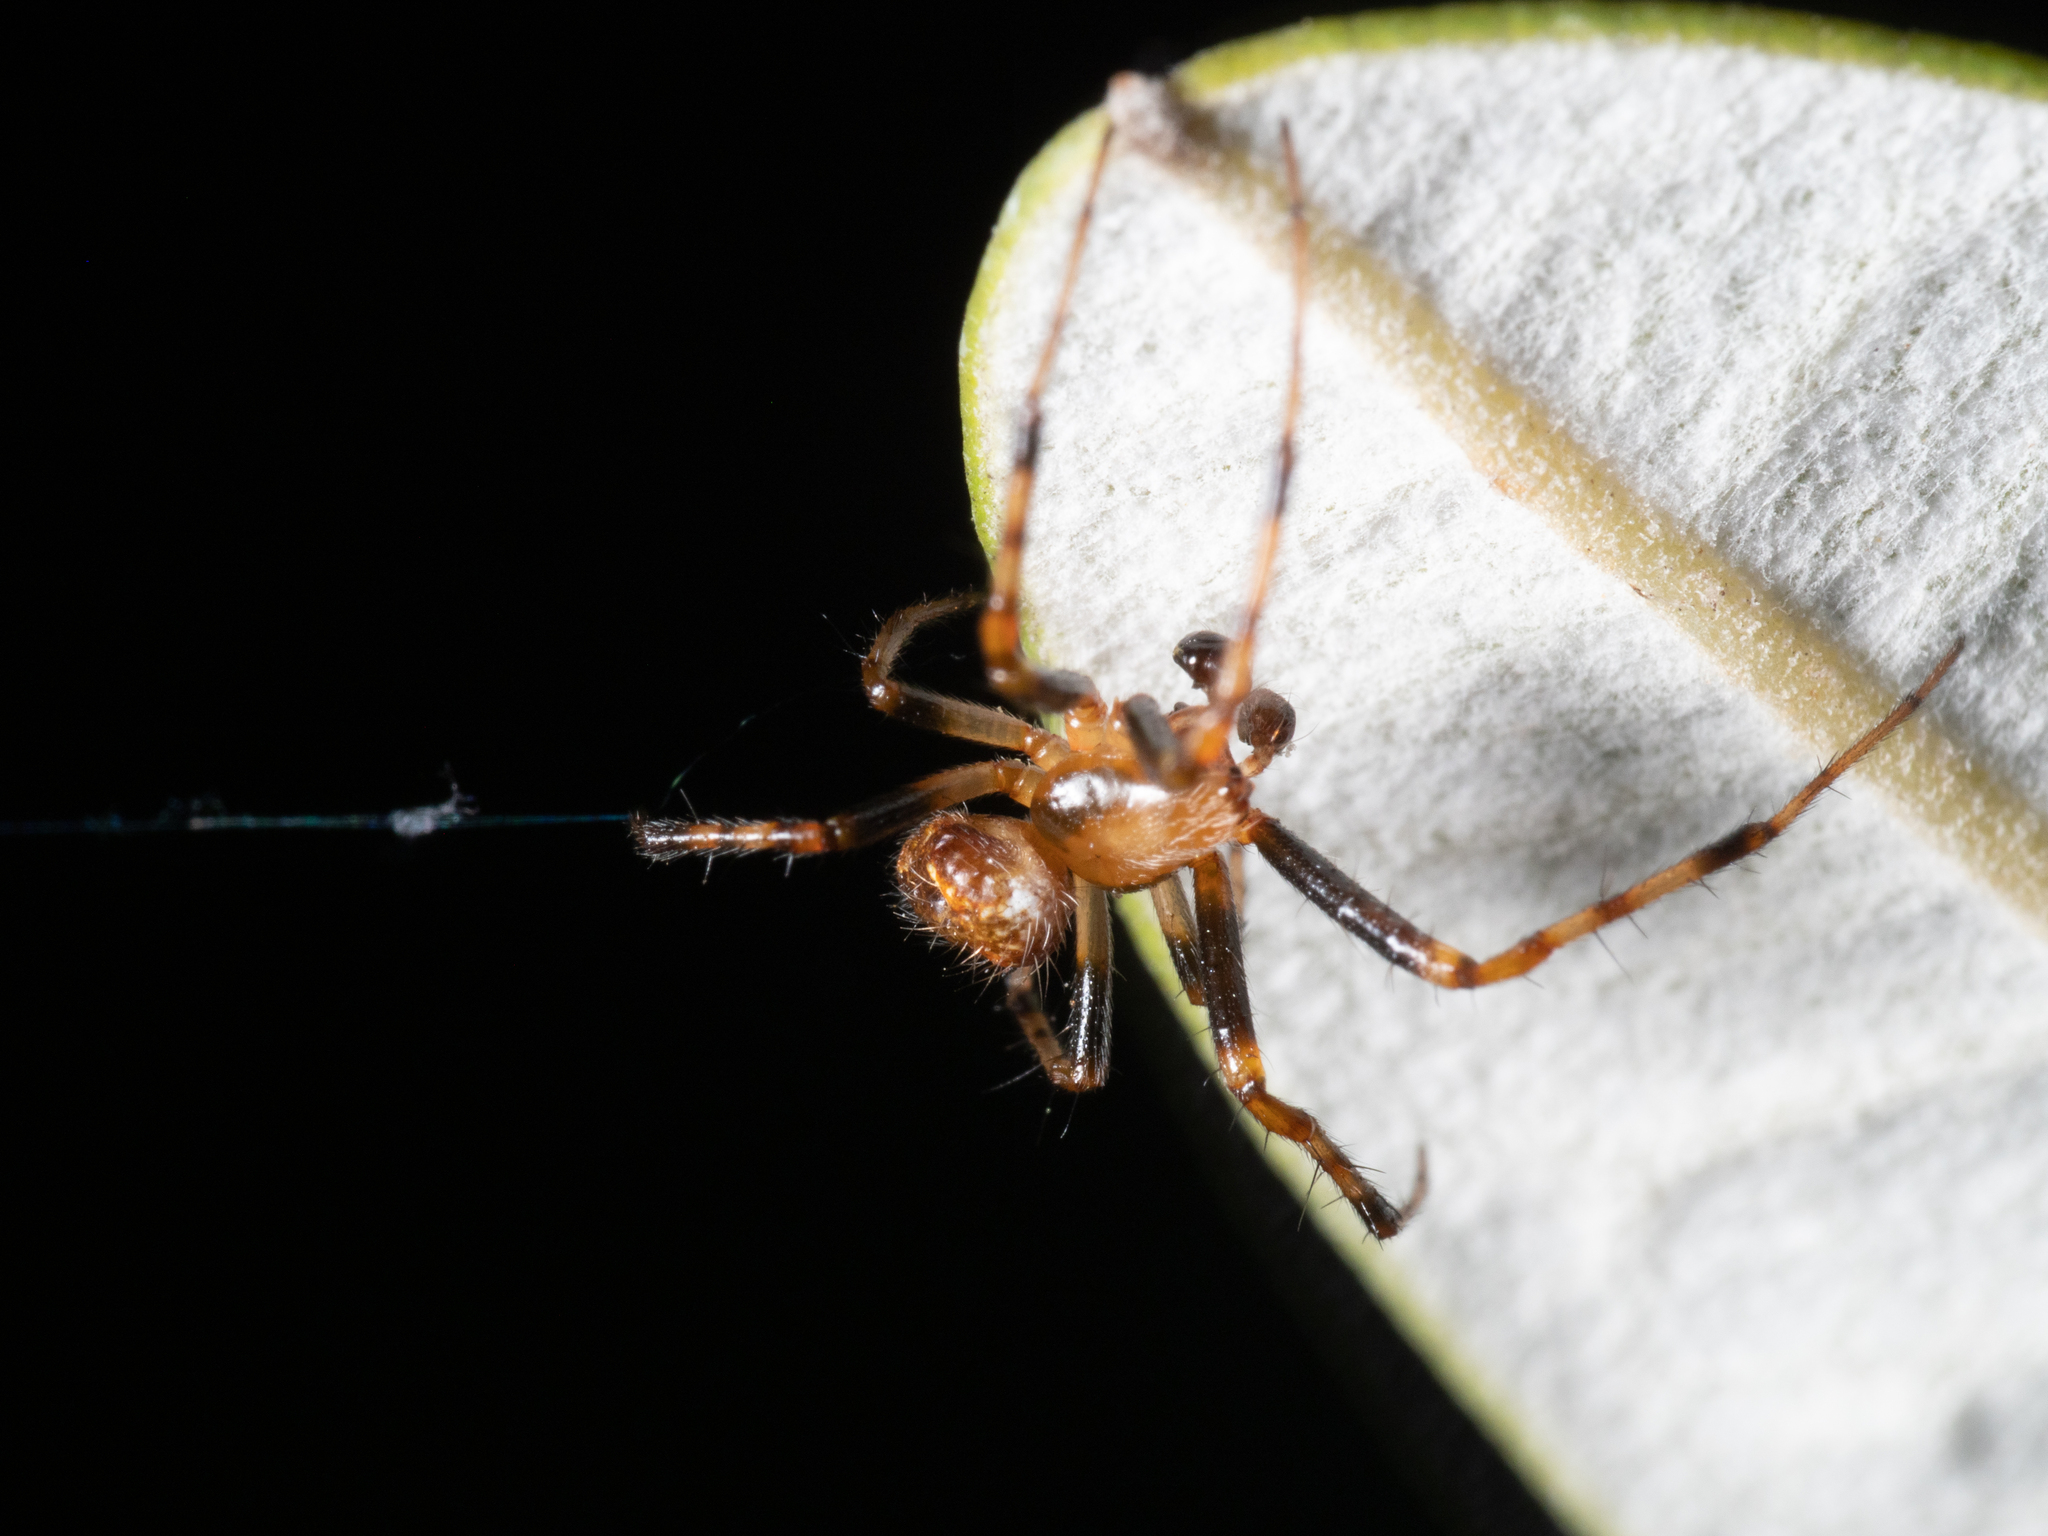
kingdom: Animalia
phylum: Arthropoda
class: Arachnida
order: Araneae
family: Araneidae
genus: Araneus
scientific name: Araneus albotriangulus
